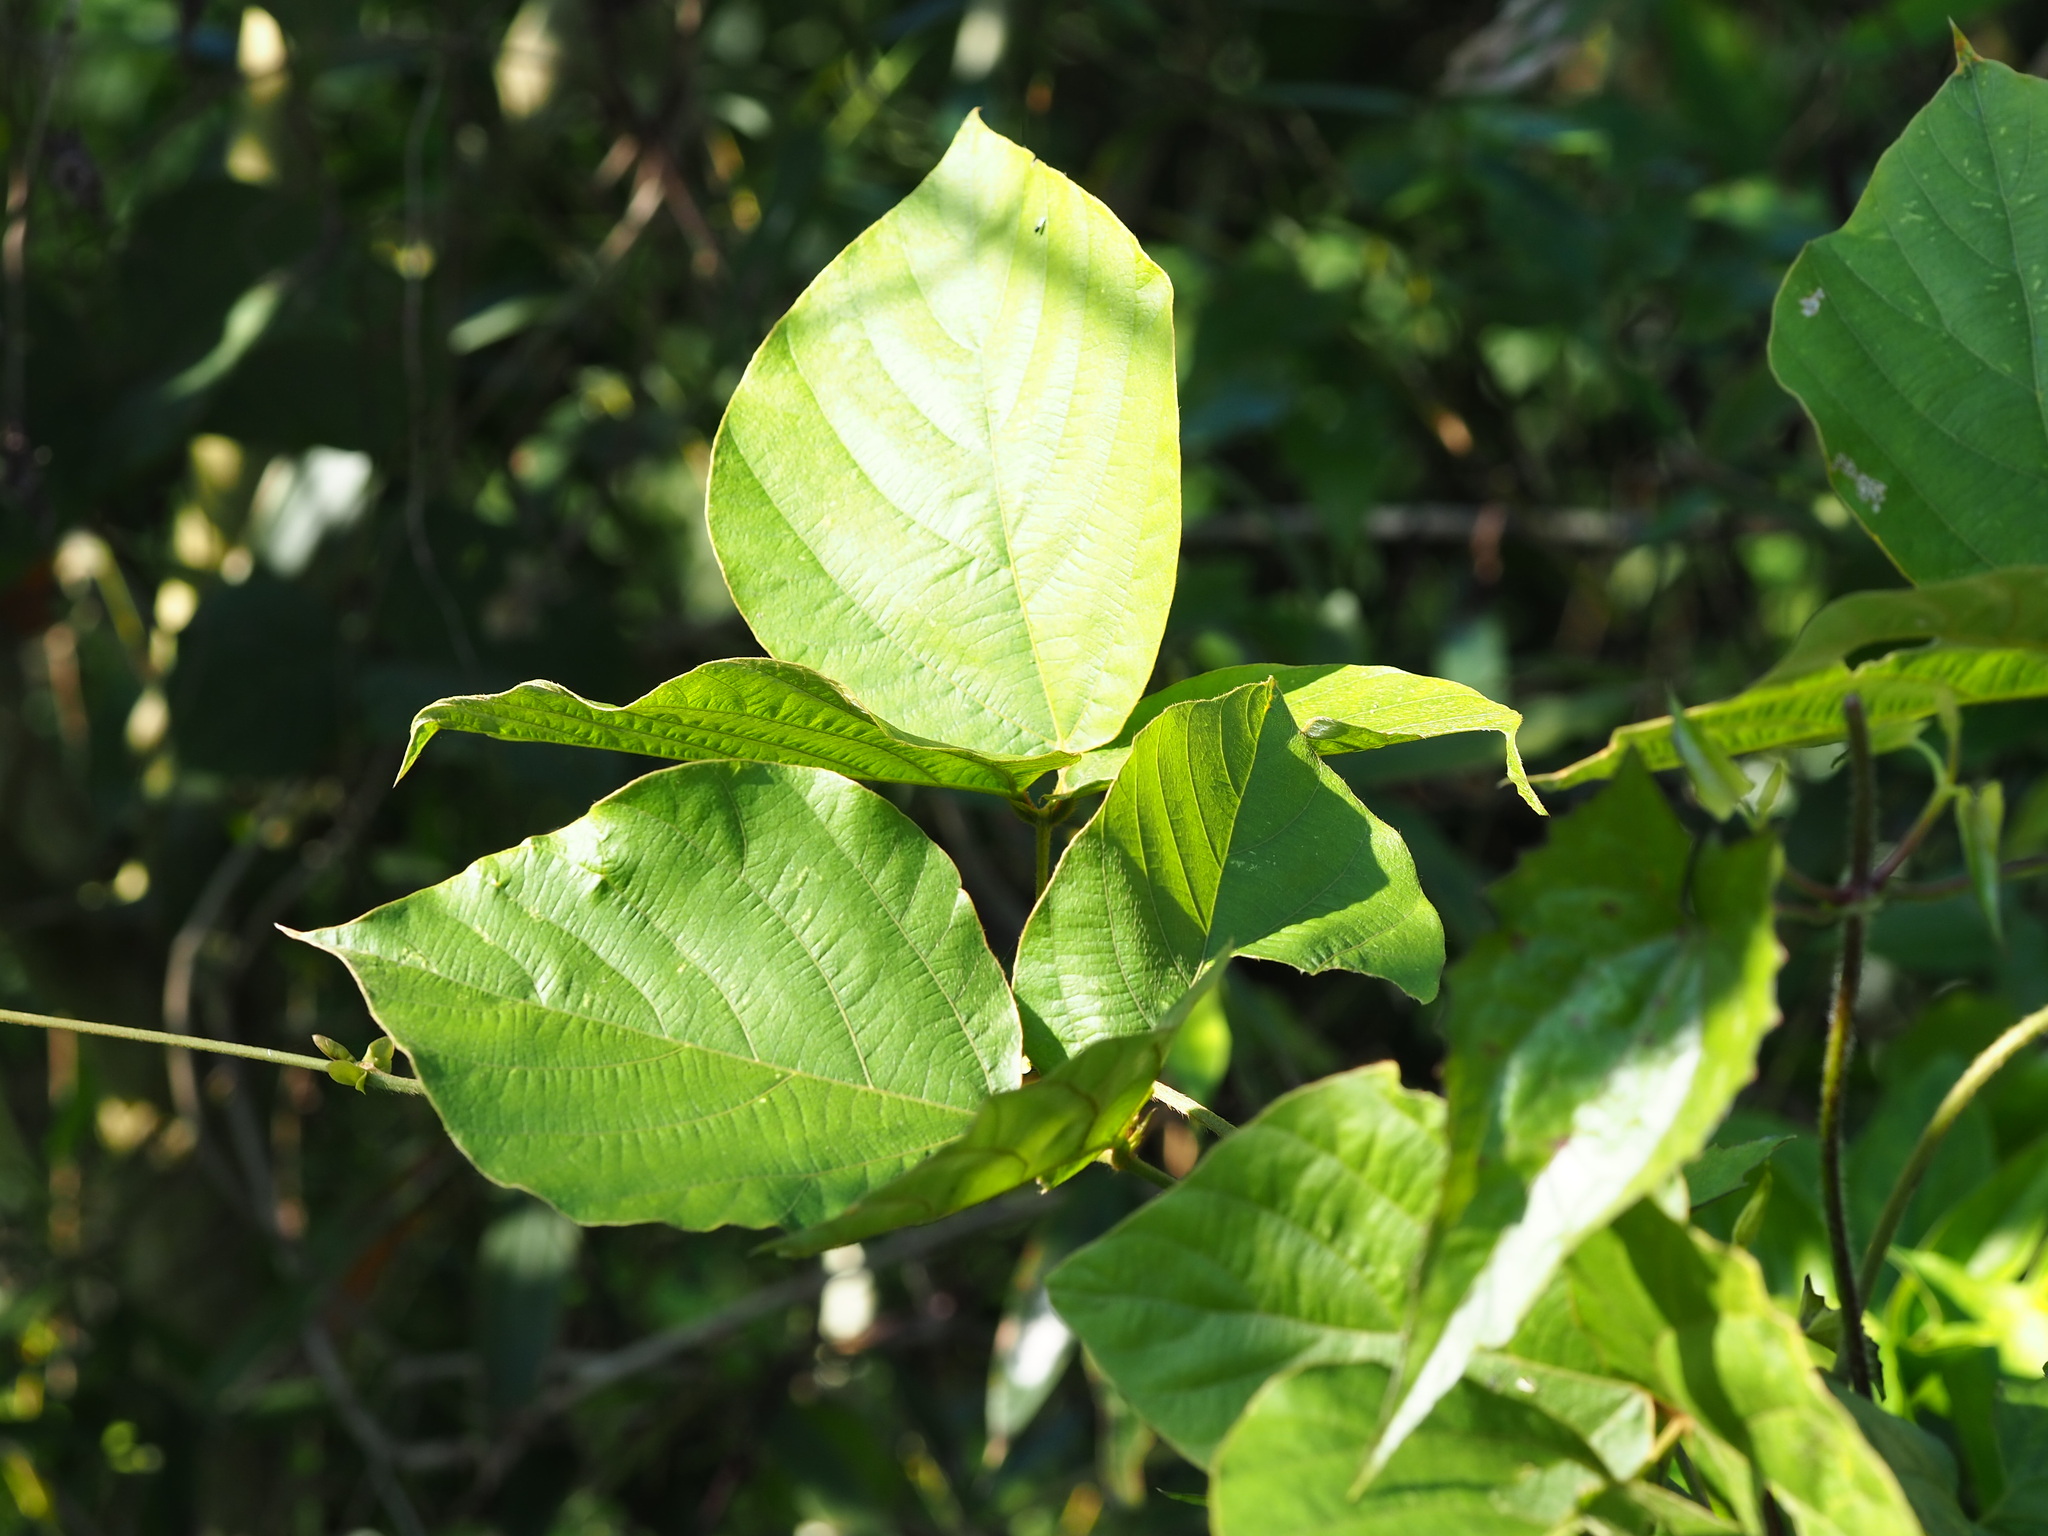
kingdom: Plantae
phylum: Tracheophyta
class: Magnoliopsida
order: Fabales
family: Fabaceae
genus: Pueraria
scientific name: Pueraria montana
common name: Kudzu
